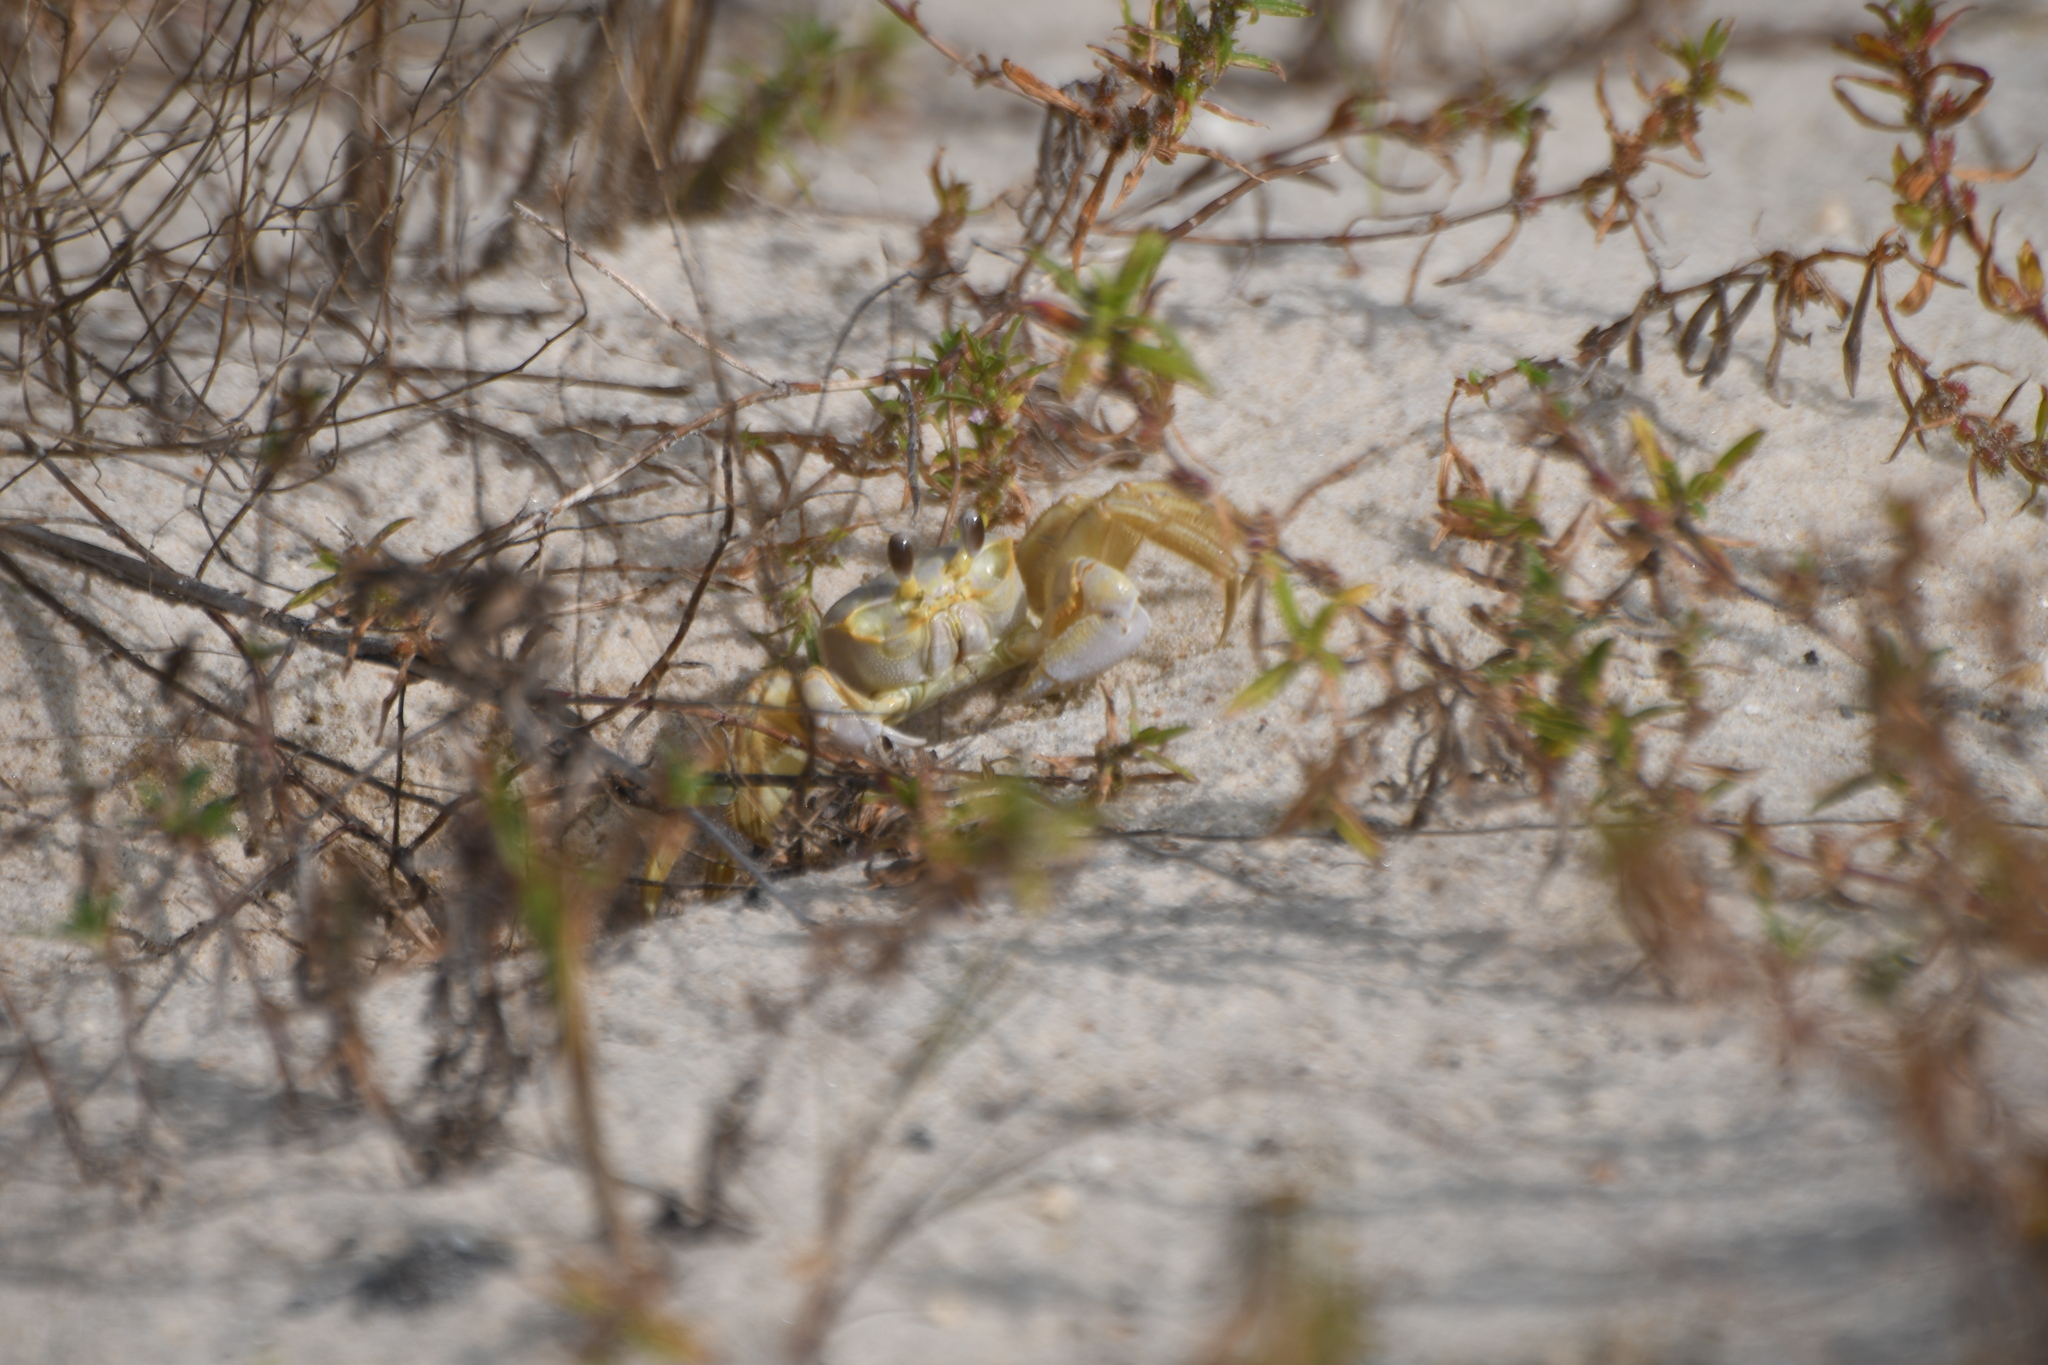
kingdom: Animalia
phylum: Arthropoda
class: Malacostraca
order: Decapoda
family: Ocypodidae
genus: Ocypode
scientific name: Ocypode quadrata
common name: Ghost crab
